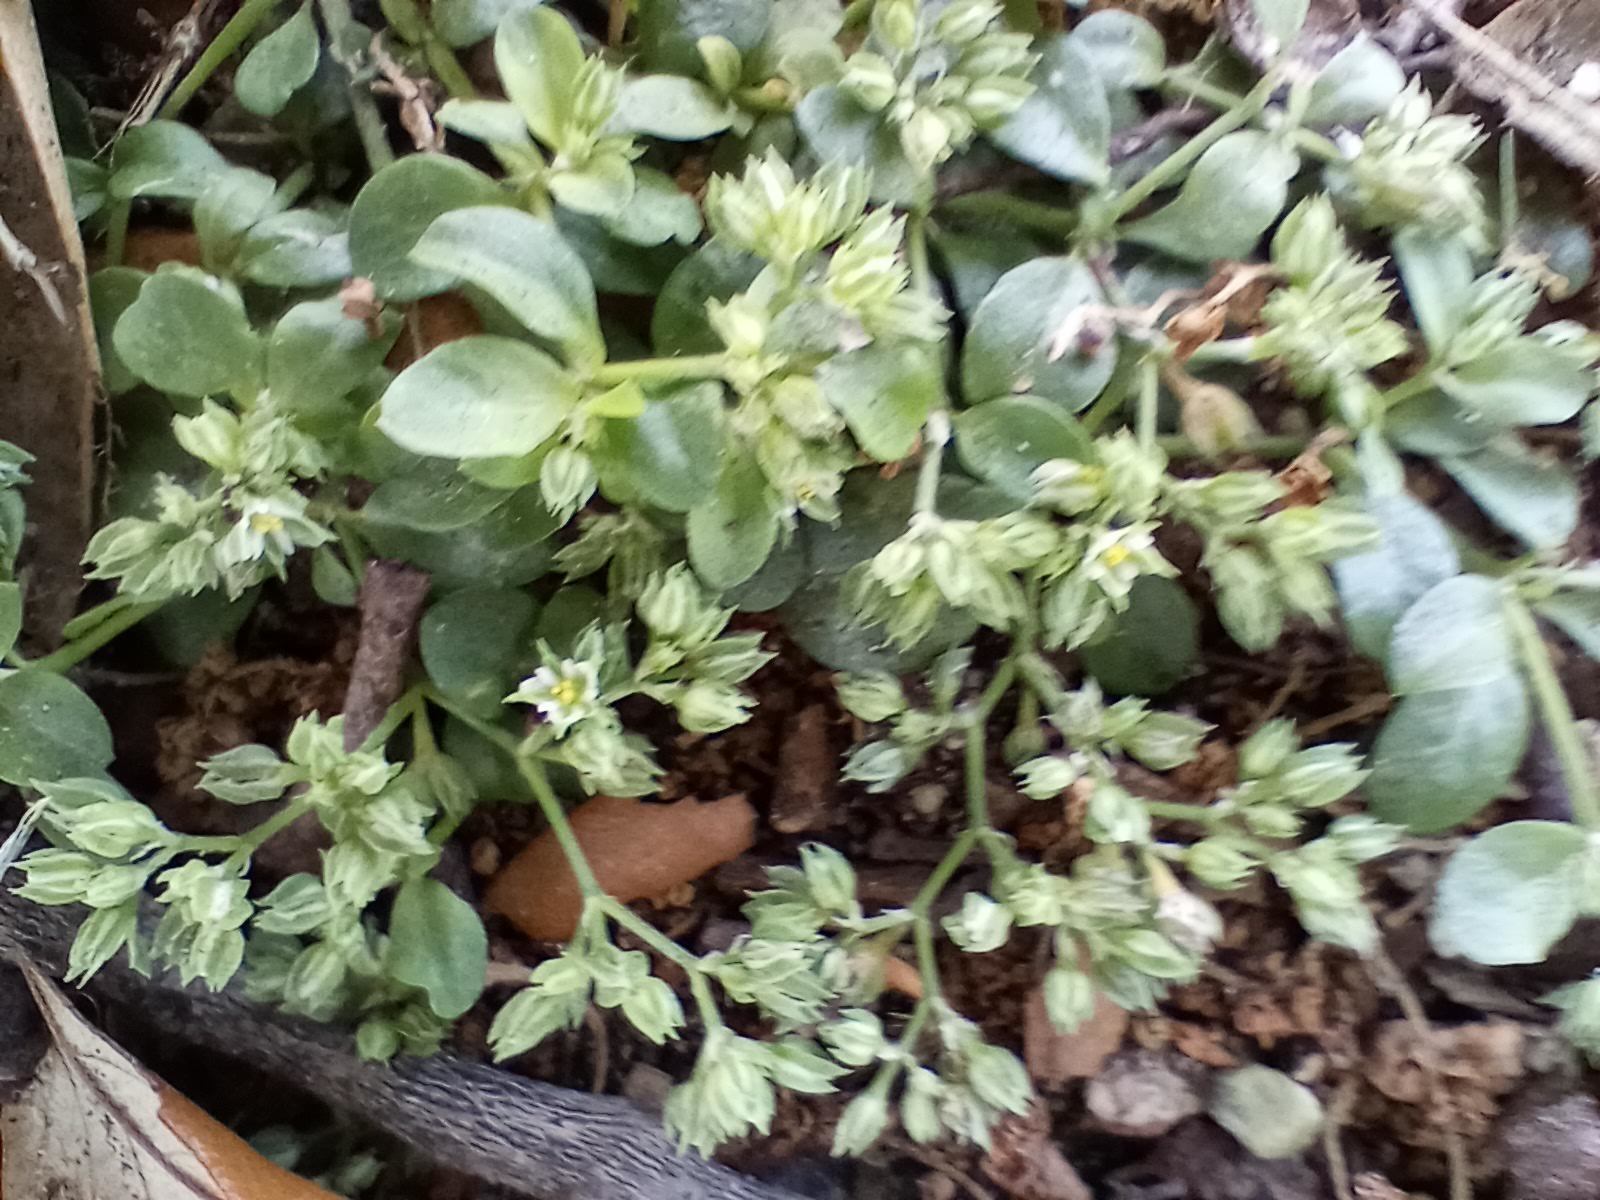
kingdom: Plantae
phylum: Tracheophyta
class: Magnoliopsida
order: Caryophyllales
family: Caryophyllaceae
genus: Polycarpon
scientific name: Polycarpon tetraphyllum
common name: Four-leaved all-seed
